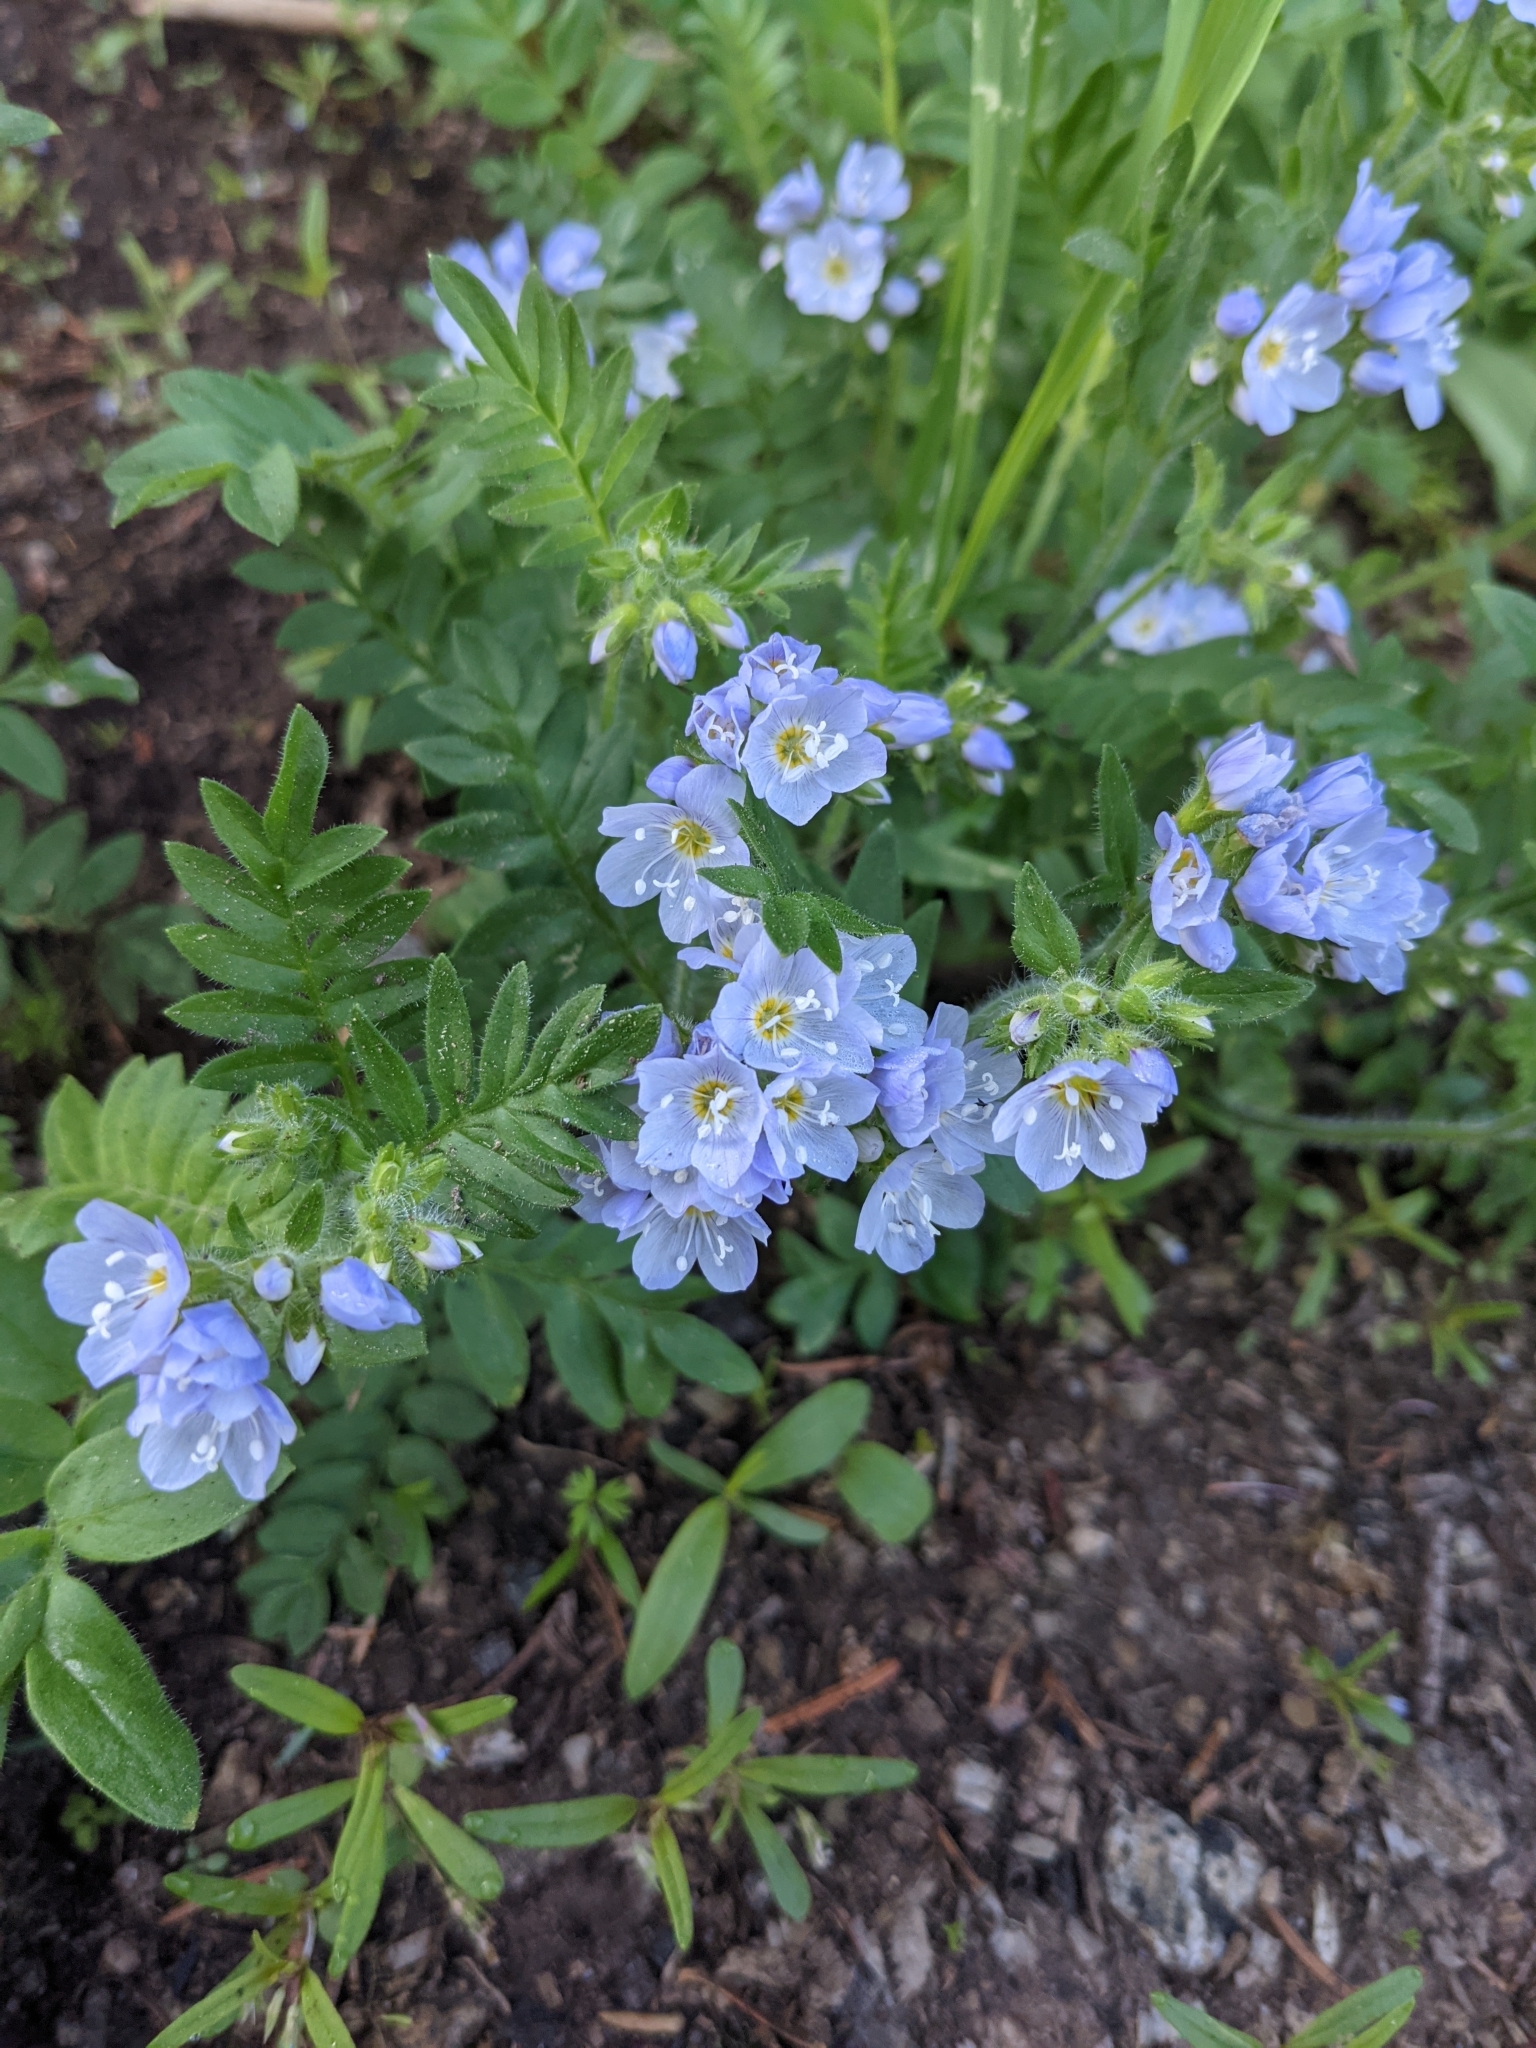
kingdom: Plantae
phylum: Tracheophyta
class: Magnoliopsida
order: Ericales
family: Polemoniaceae
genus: Polemonium
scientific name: Polemonium californicum
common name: California jacob's ladder
